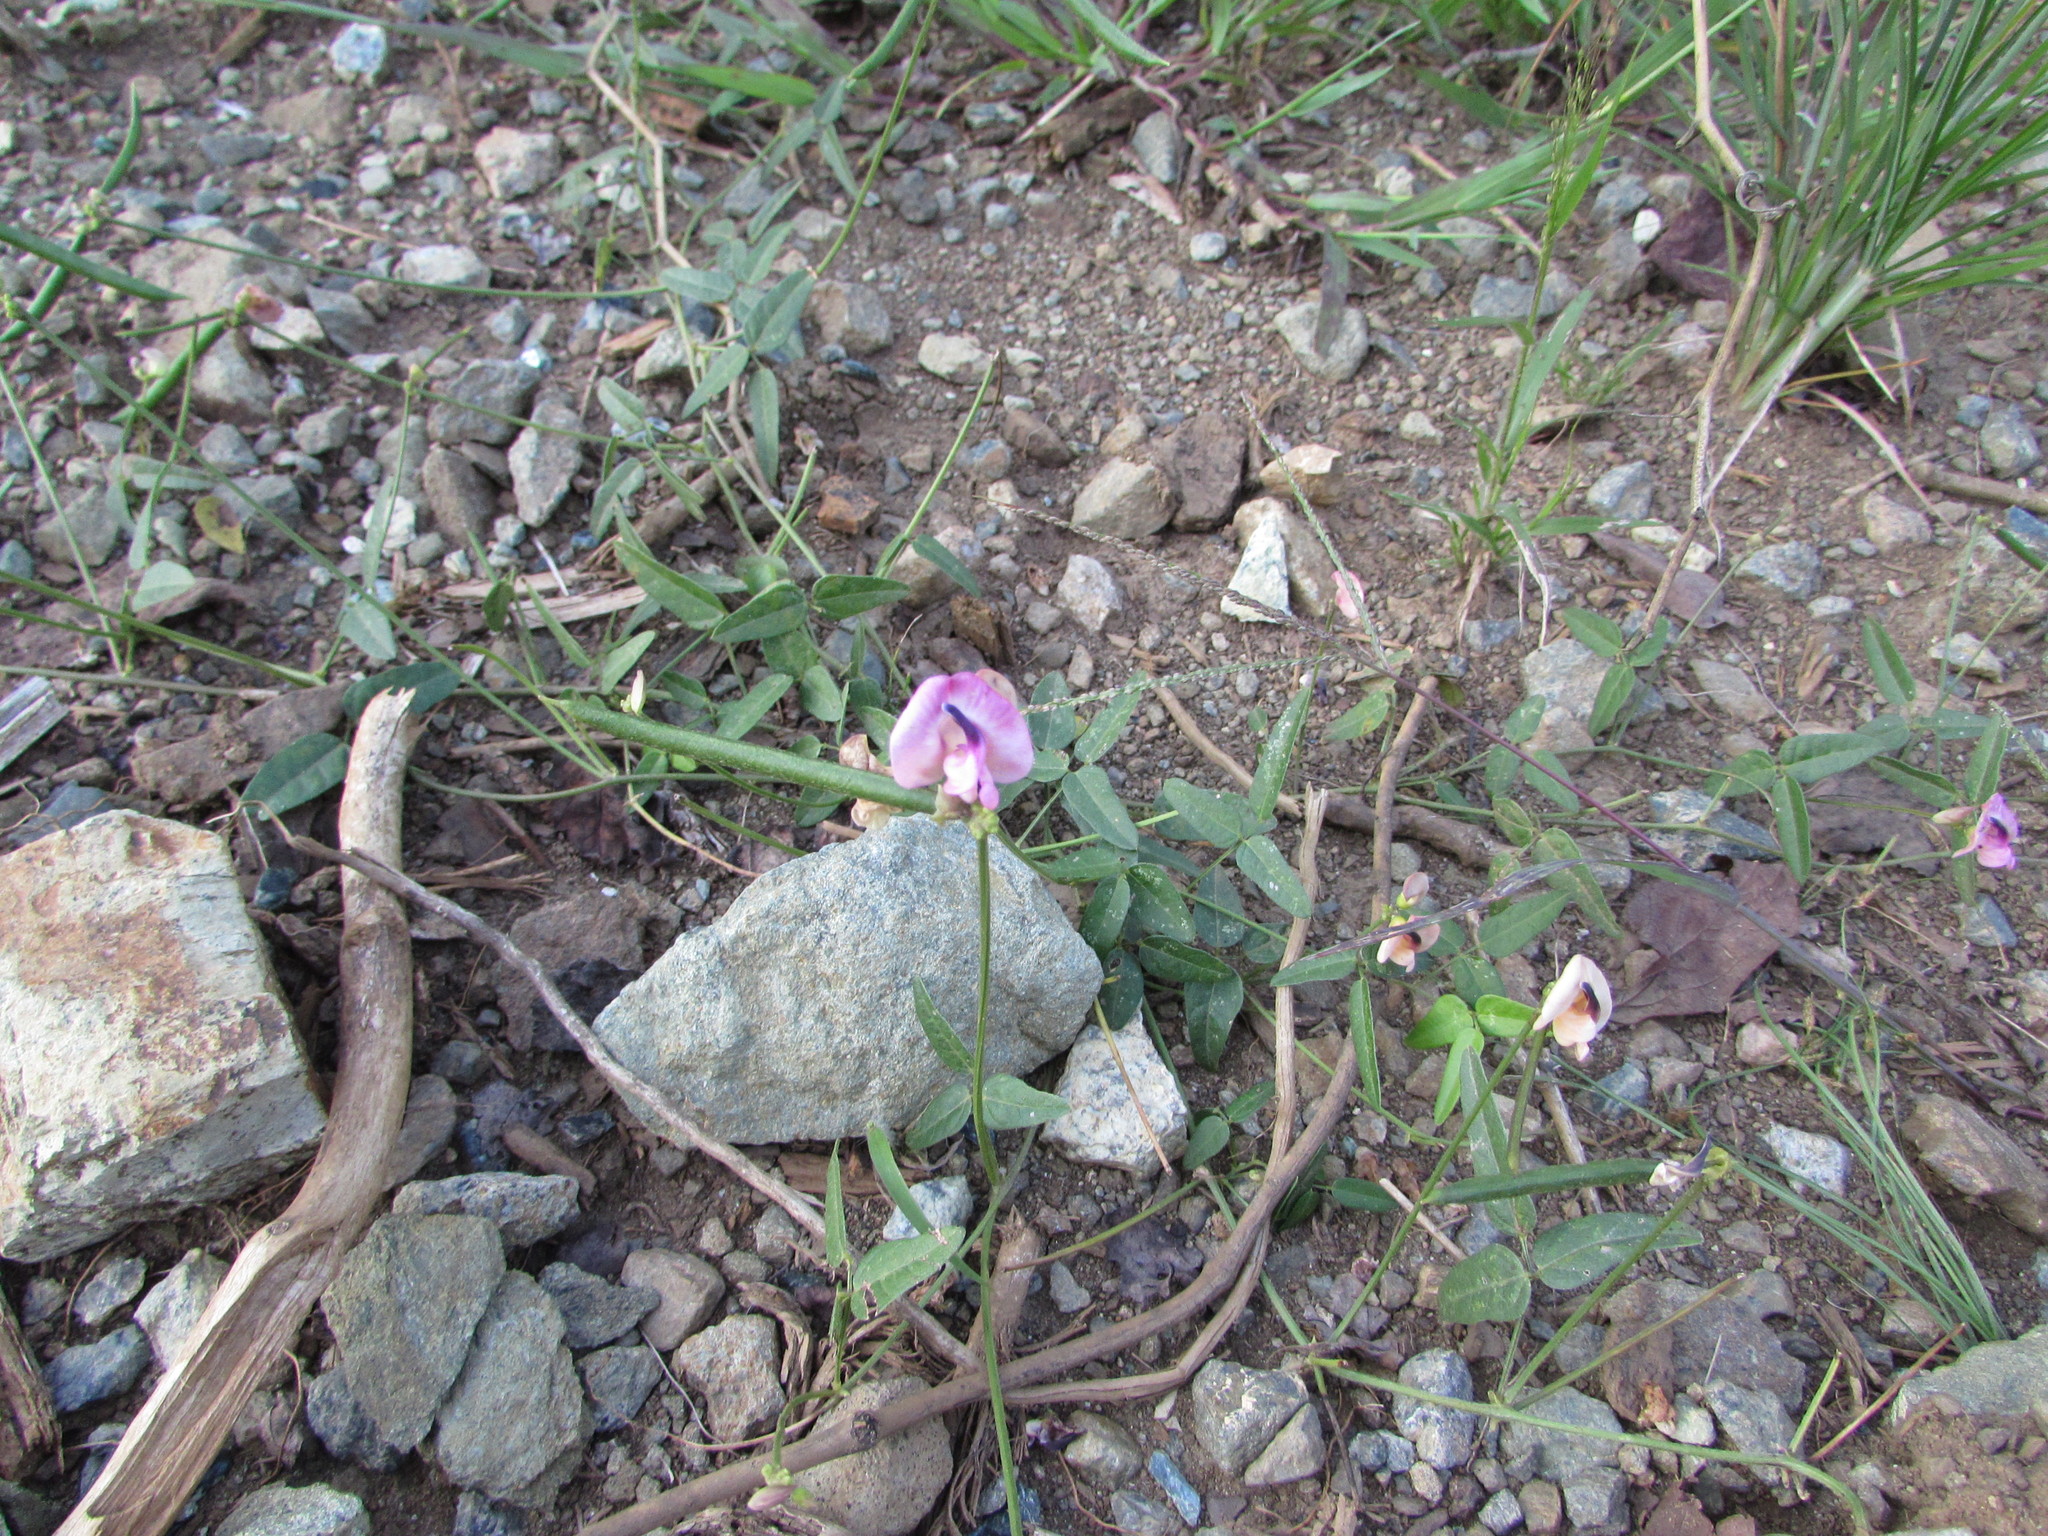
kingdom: Plantae
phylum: Tracheophyta
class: Magnoliopsida
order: Fabales
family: Fabaceae
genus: Strophostyles
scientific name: Strophostyles umbellata
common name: Perennial wild bean
